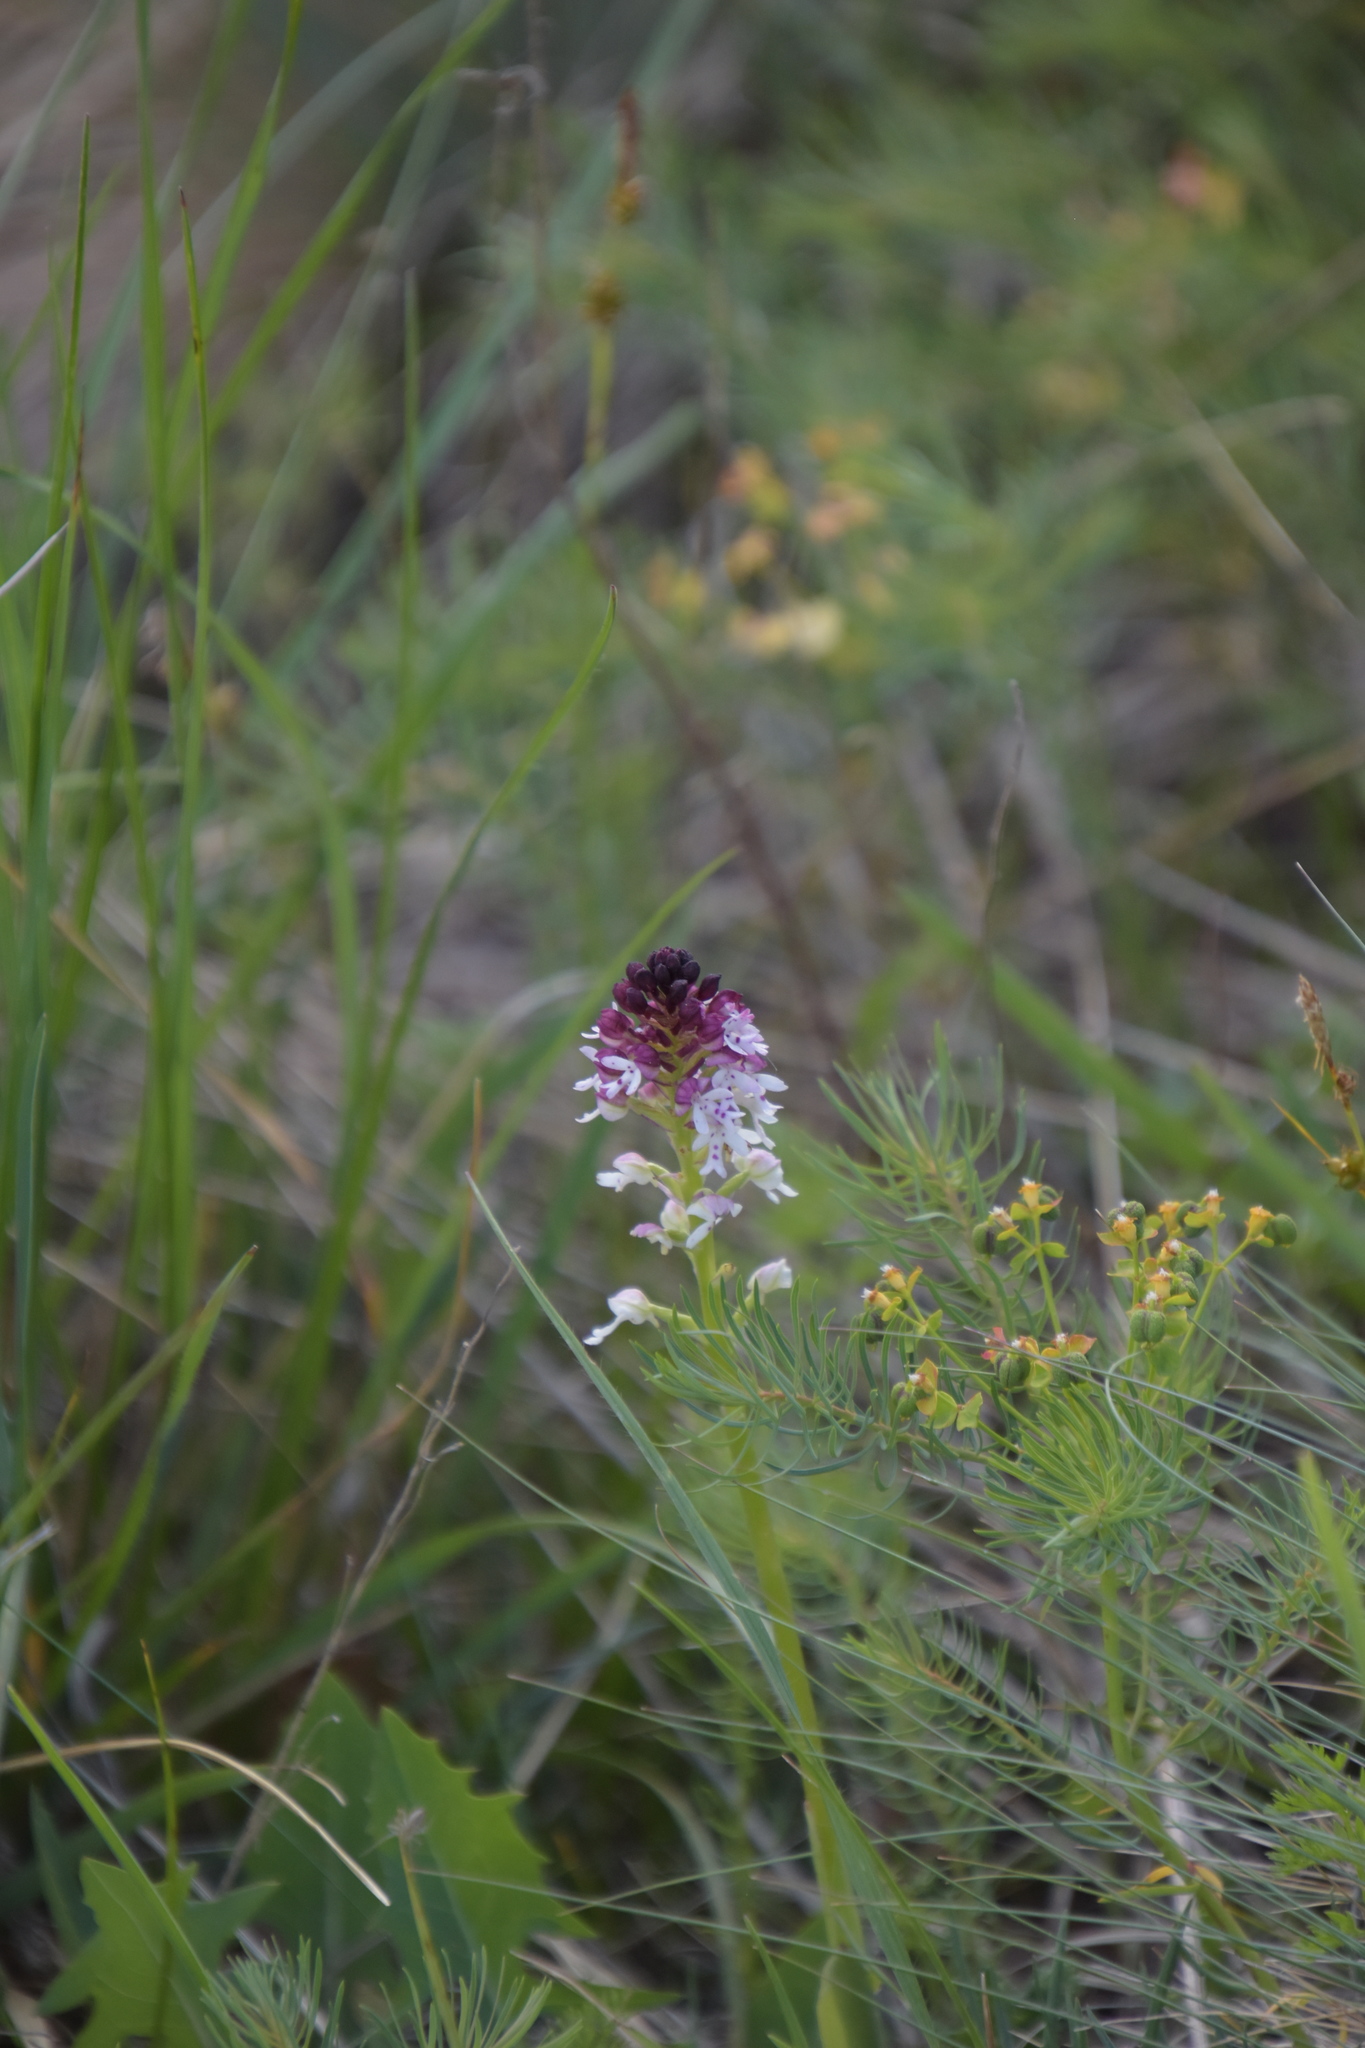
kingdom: Plantae
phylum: Tracheophyta
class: Liliopsida
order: Asparagales
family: Orchidaceae
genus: Neotinea
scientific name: Neotinea ustulata
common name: Burnt orchid
